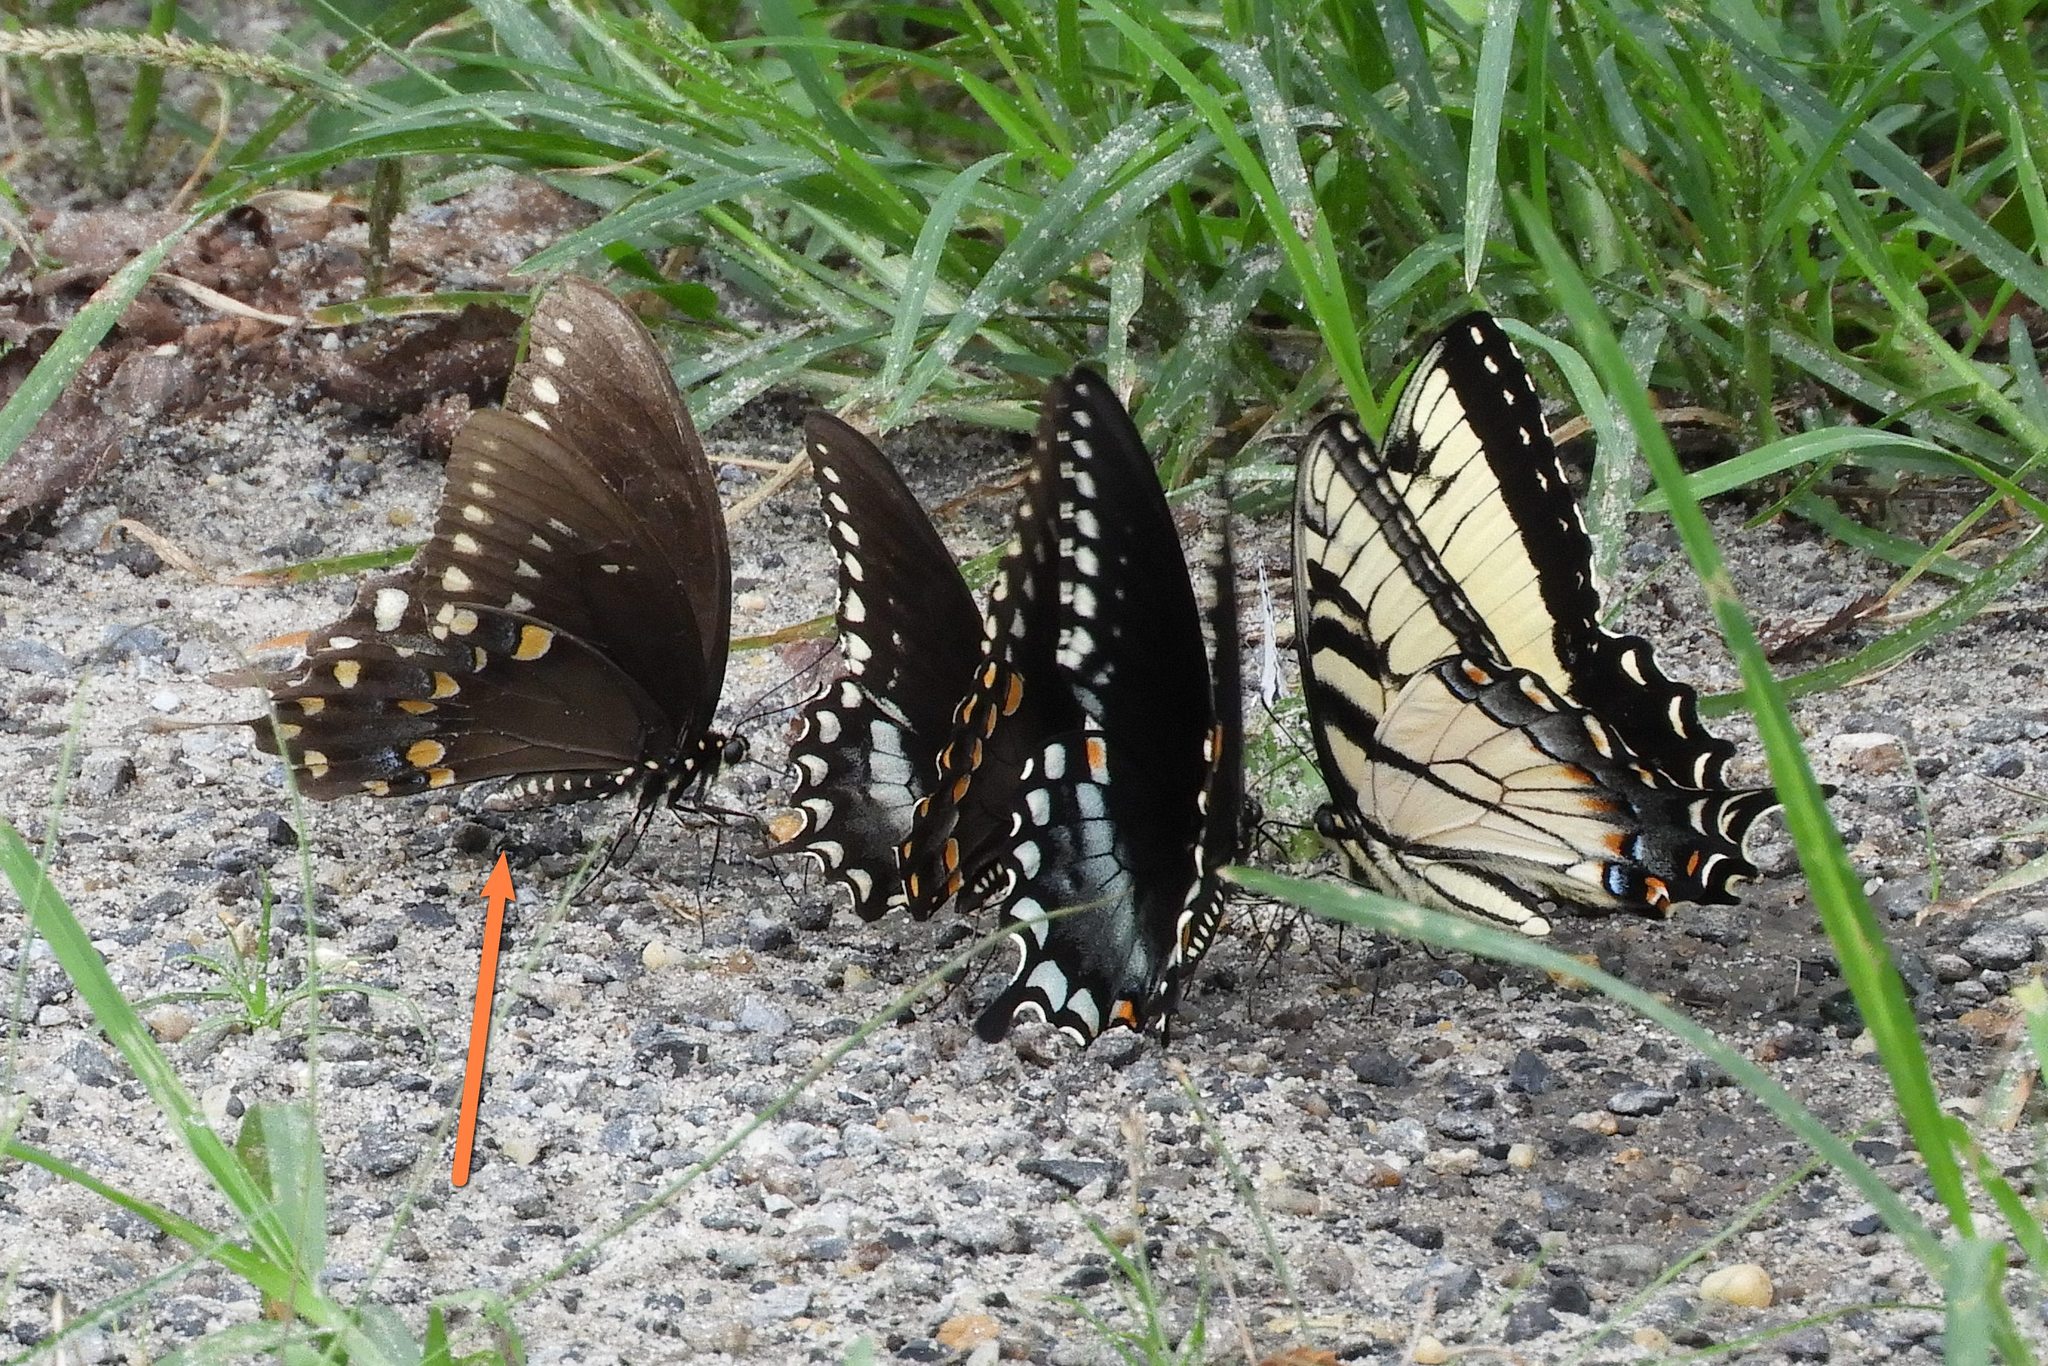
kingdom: Animalia
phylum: Arthropoda
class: Insecta
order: Lepidoptera
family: Papilionidae
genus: Papilio
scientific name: Papilio troilus
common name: Spicebush swallowtail
